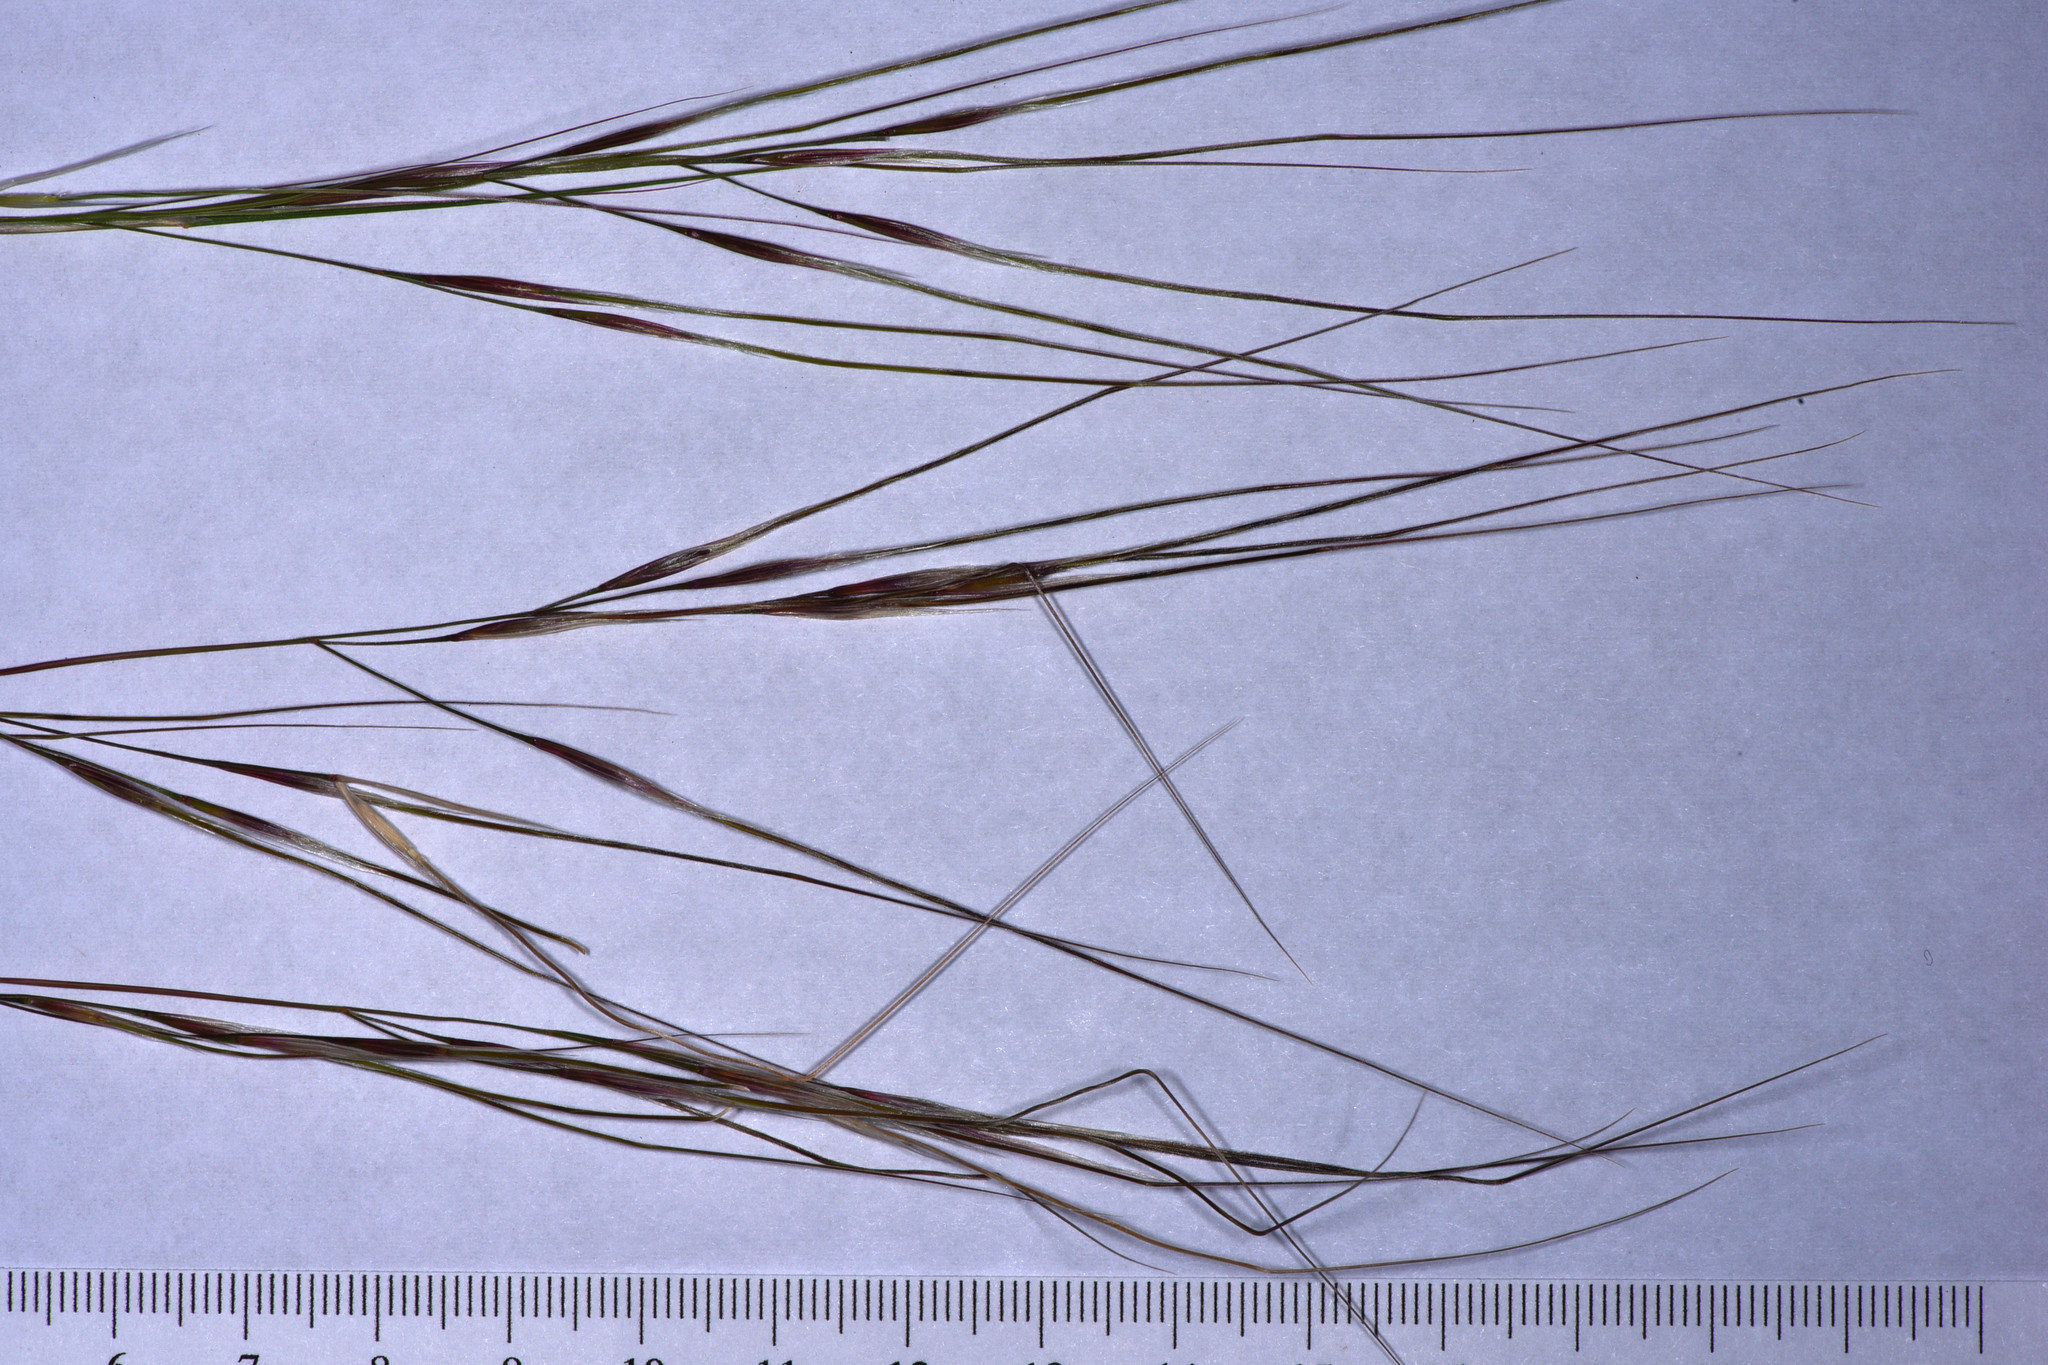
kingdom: Plantae
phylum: Tracheophyta
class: Liliopsida
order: Poales
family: Poaceae
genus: Nassella
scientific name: Nassella pulchra
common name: Purple needlegrass
